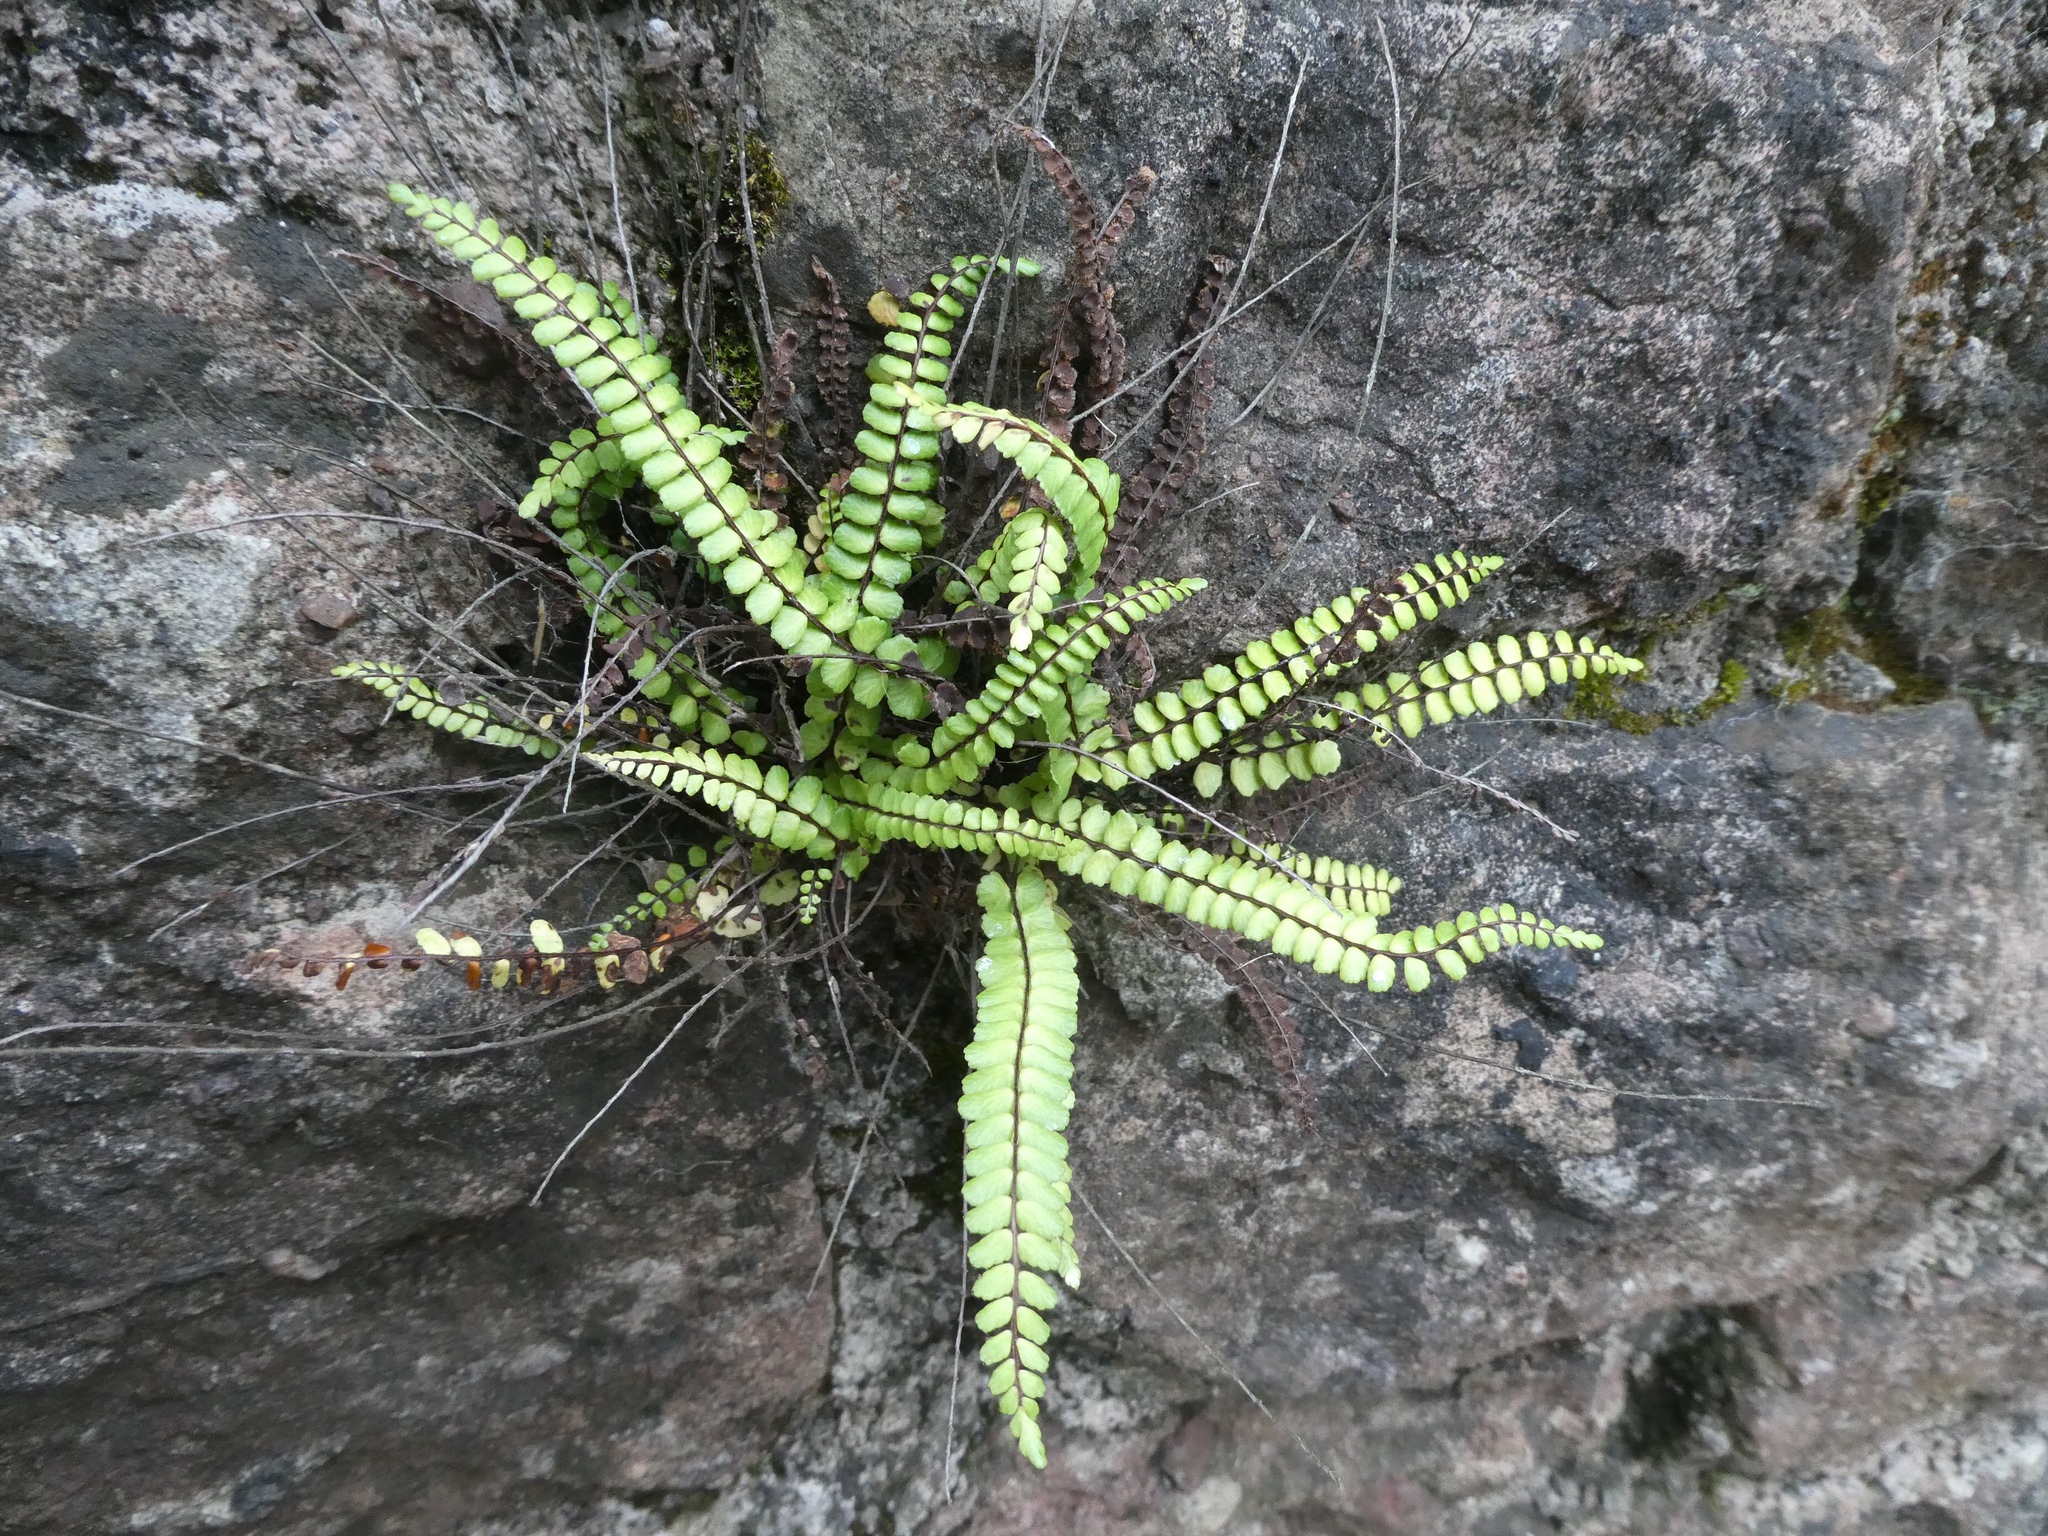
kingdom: Plantae
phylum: Tracheophyta
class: Polypodiopsida
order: Polypodiales
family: Aspleniaceae
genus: Asplenium
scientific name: Asplenium trichomanes
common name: Maidenhair spleenwort
